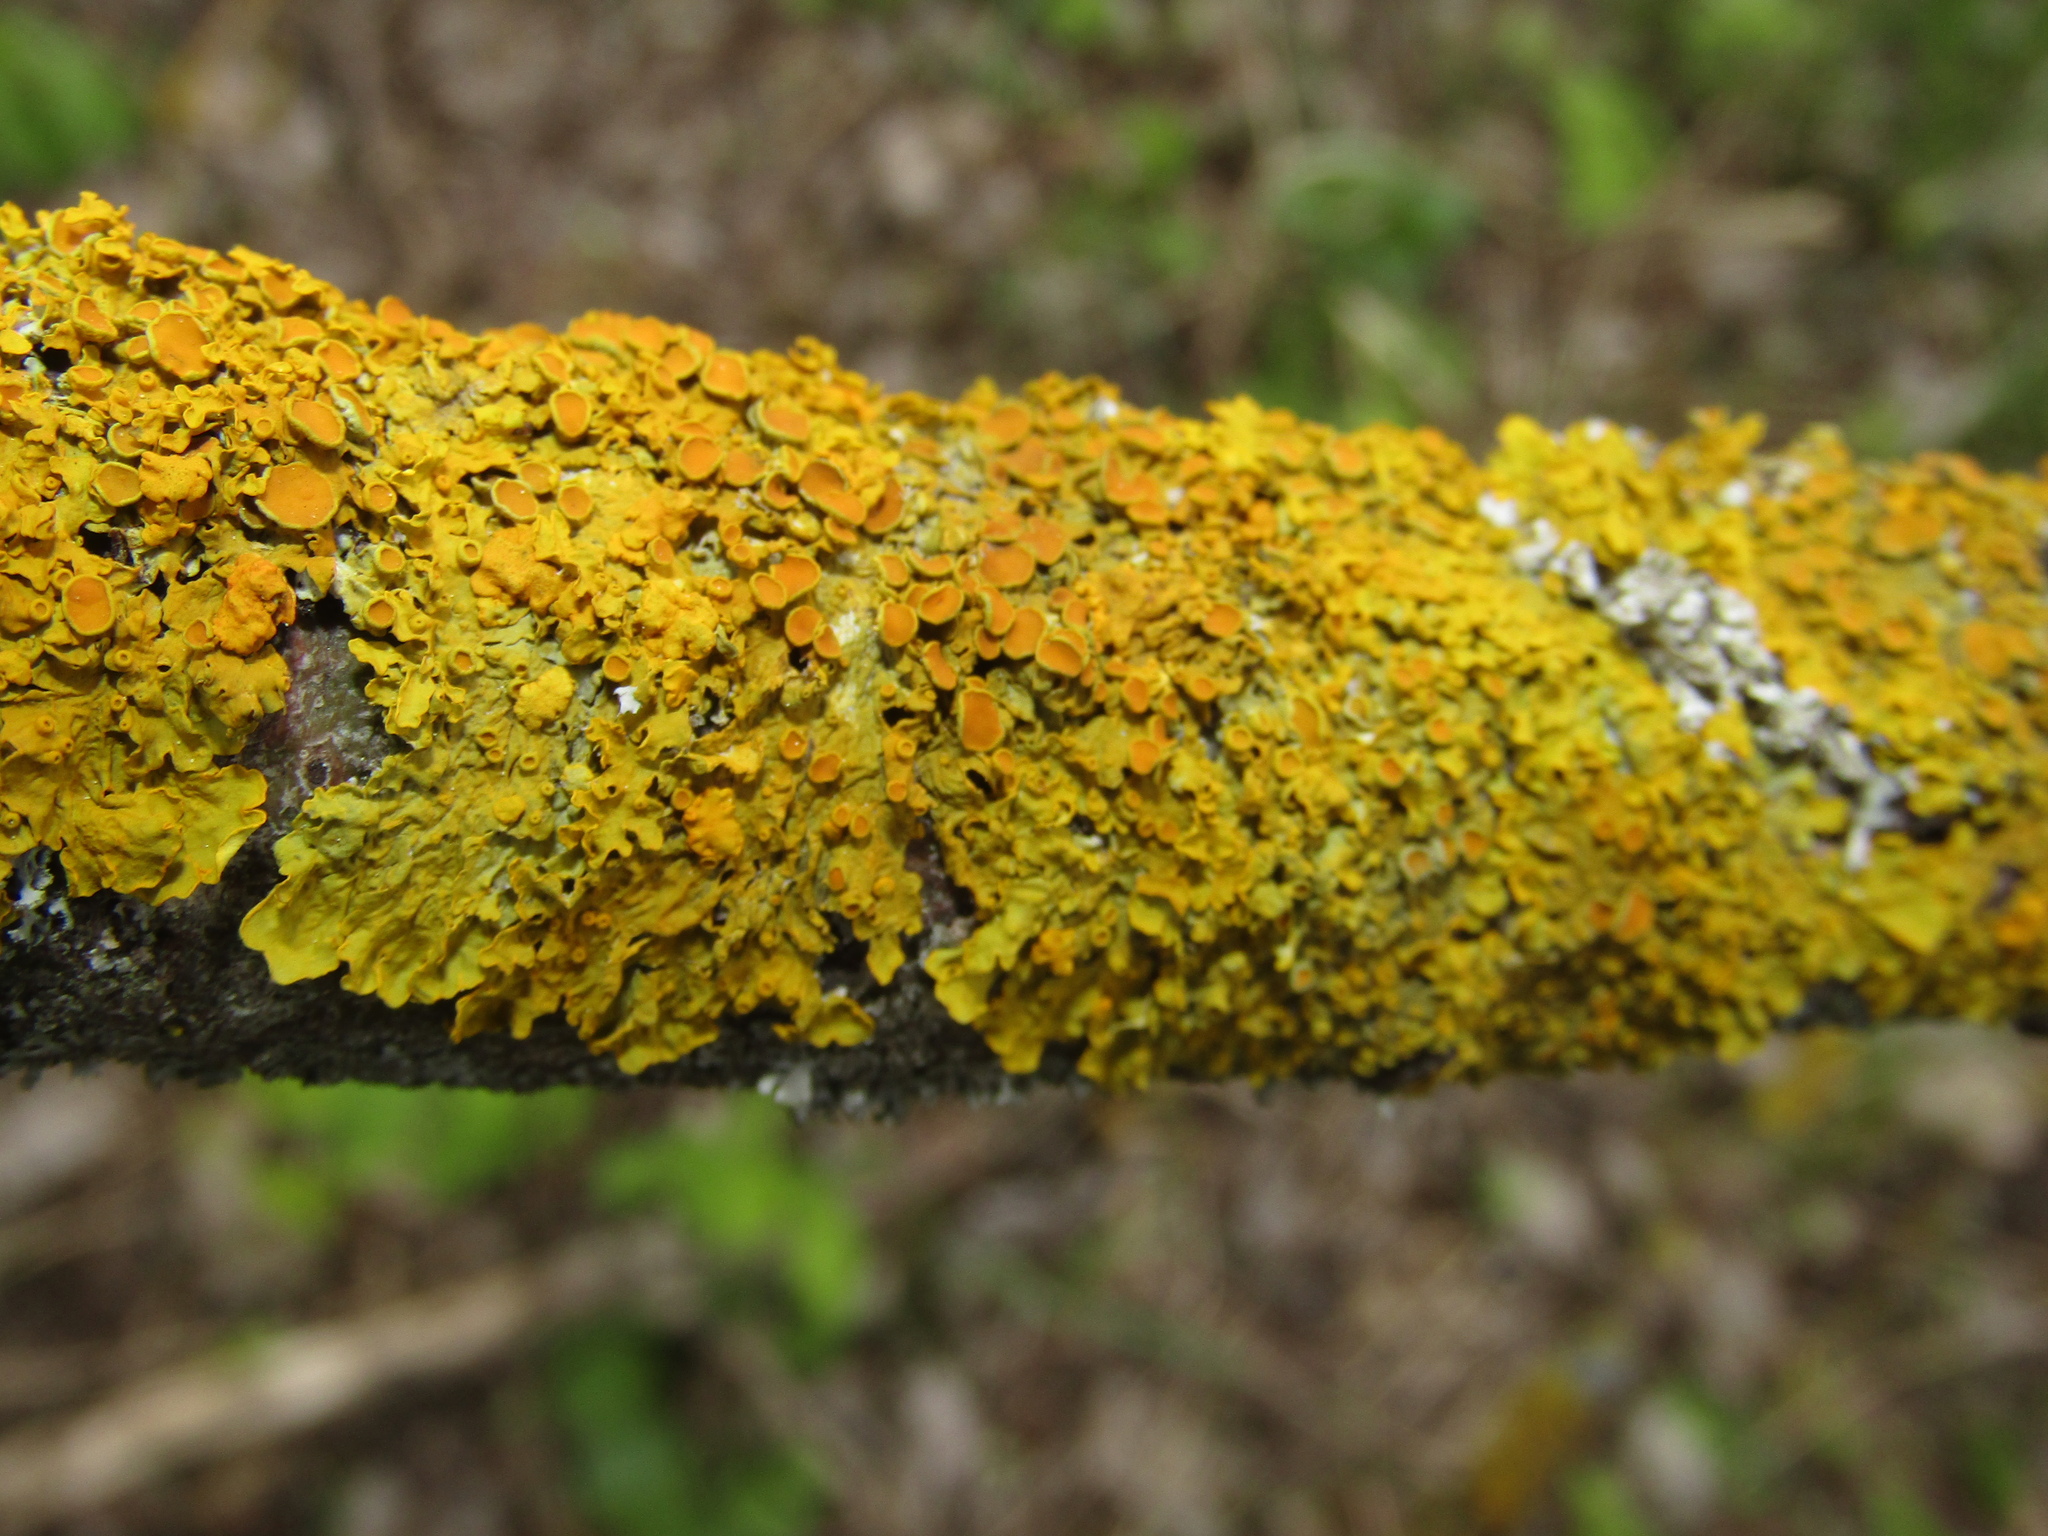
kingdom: Fungi
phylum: Ascomycota
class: Lecanoromycetes
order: Teloschistales
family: Teloschistaceae
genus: Xanthoria
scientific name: Xanthoria parietina
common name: Common orange lichen
